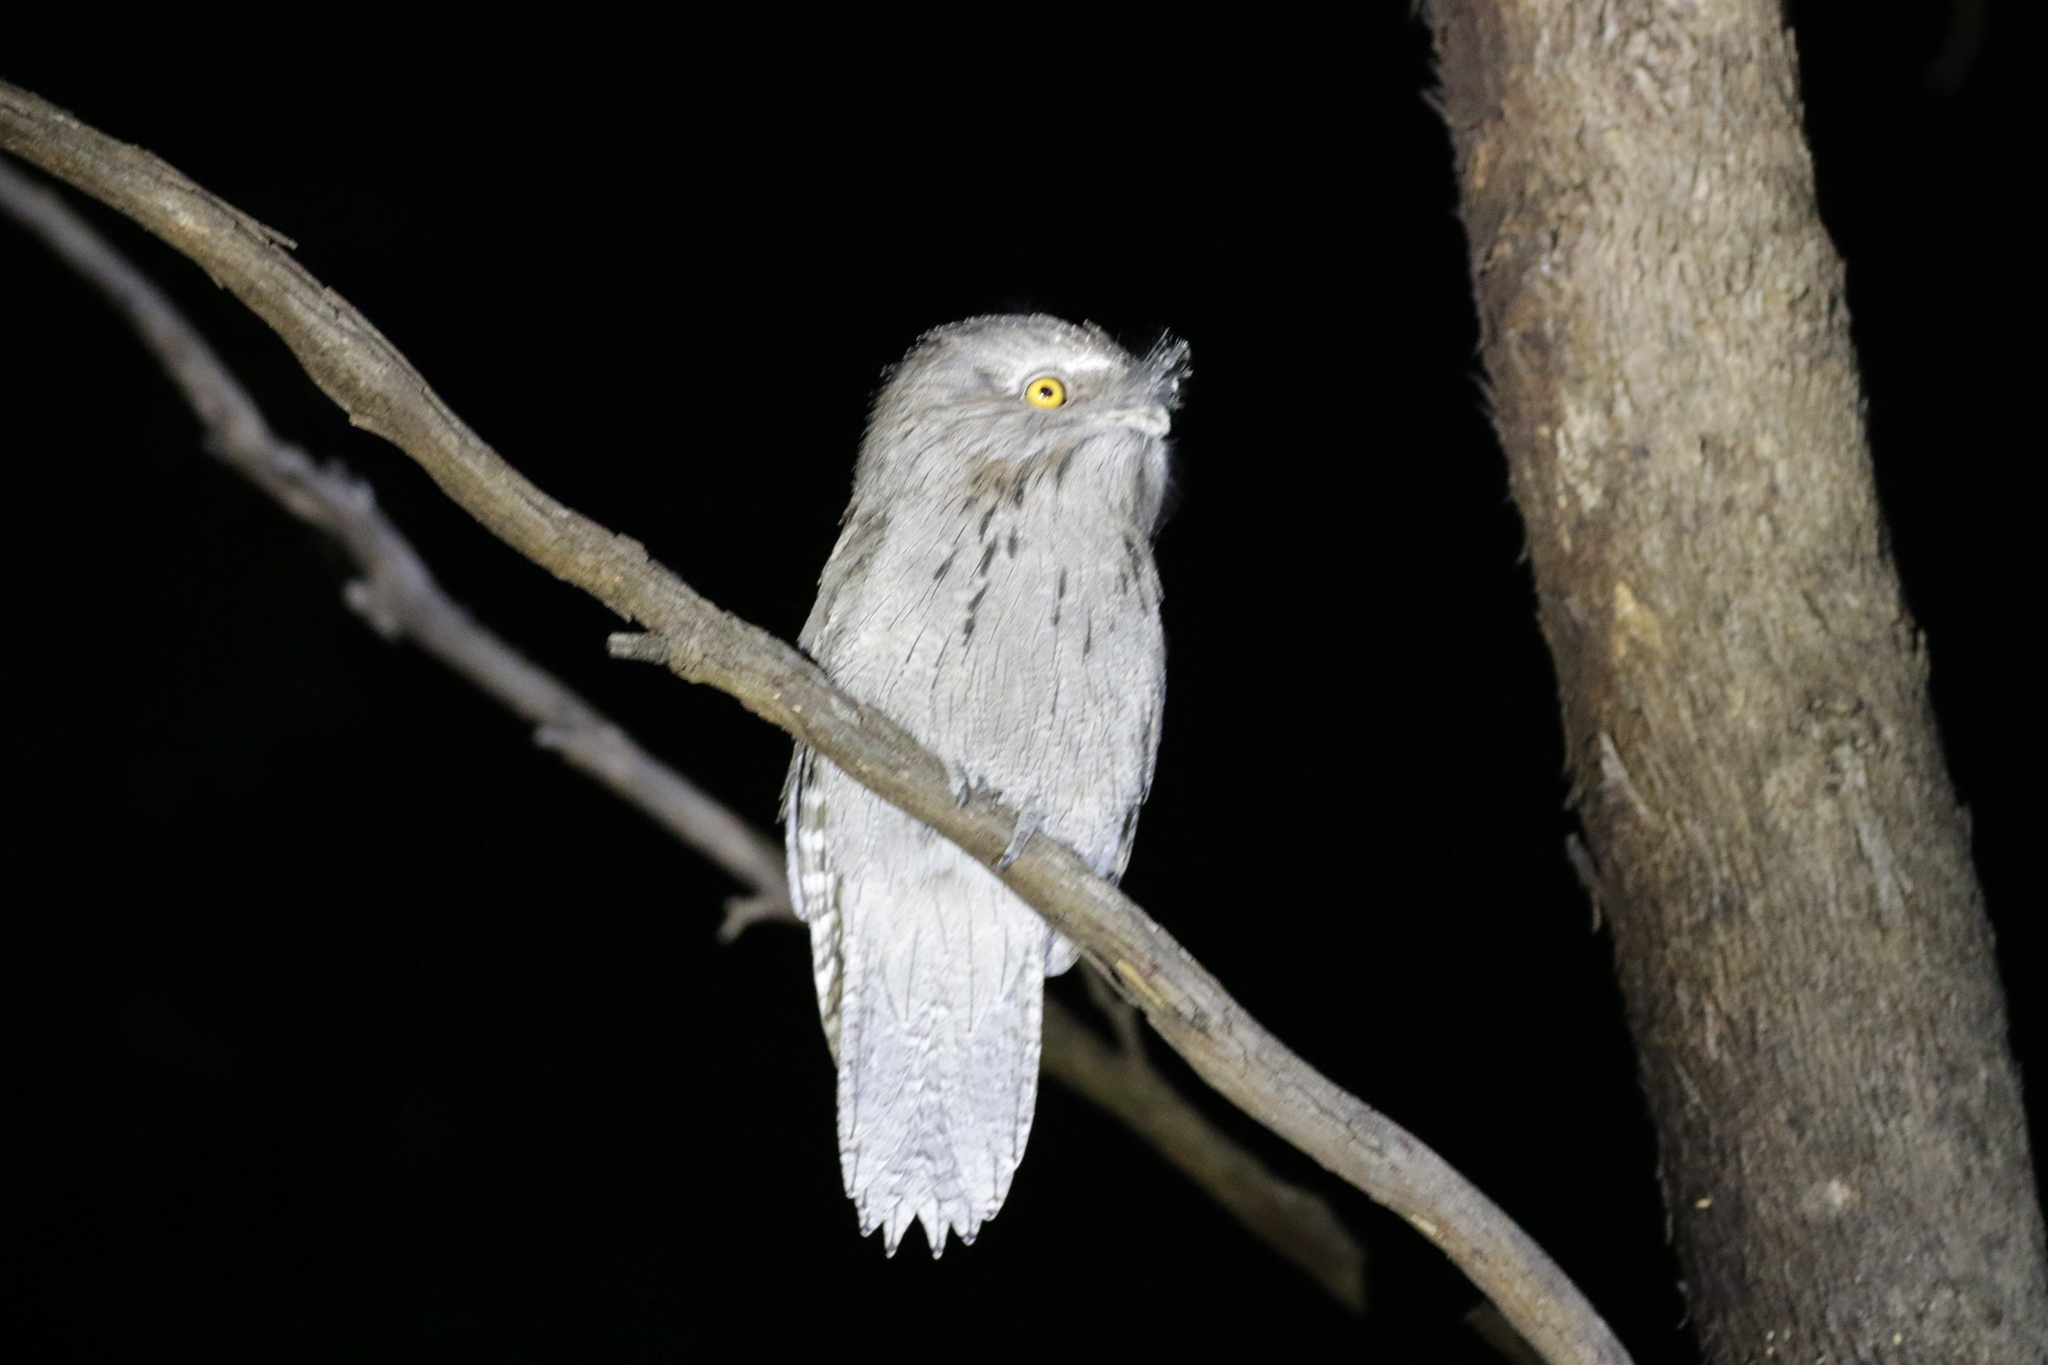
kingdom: Animalia
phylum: Chordata
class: Aves
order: Caprimulgiformes
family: Podargidae
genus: Podargus
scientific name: Podargus strigoides
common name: Tawny frogmouth
